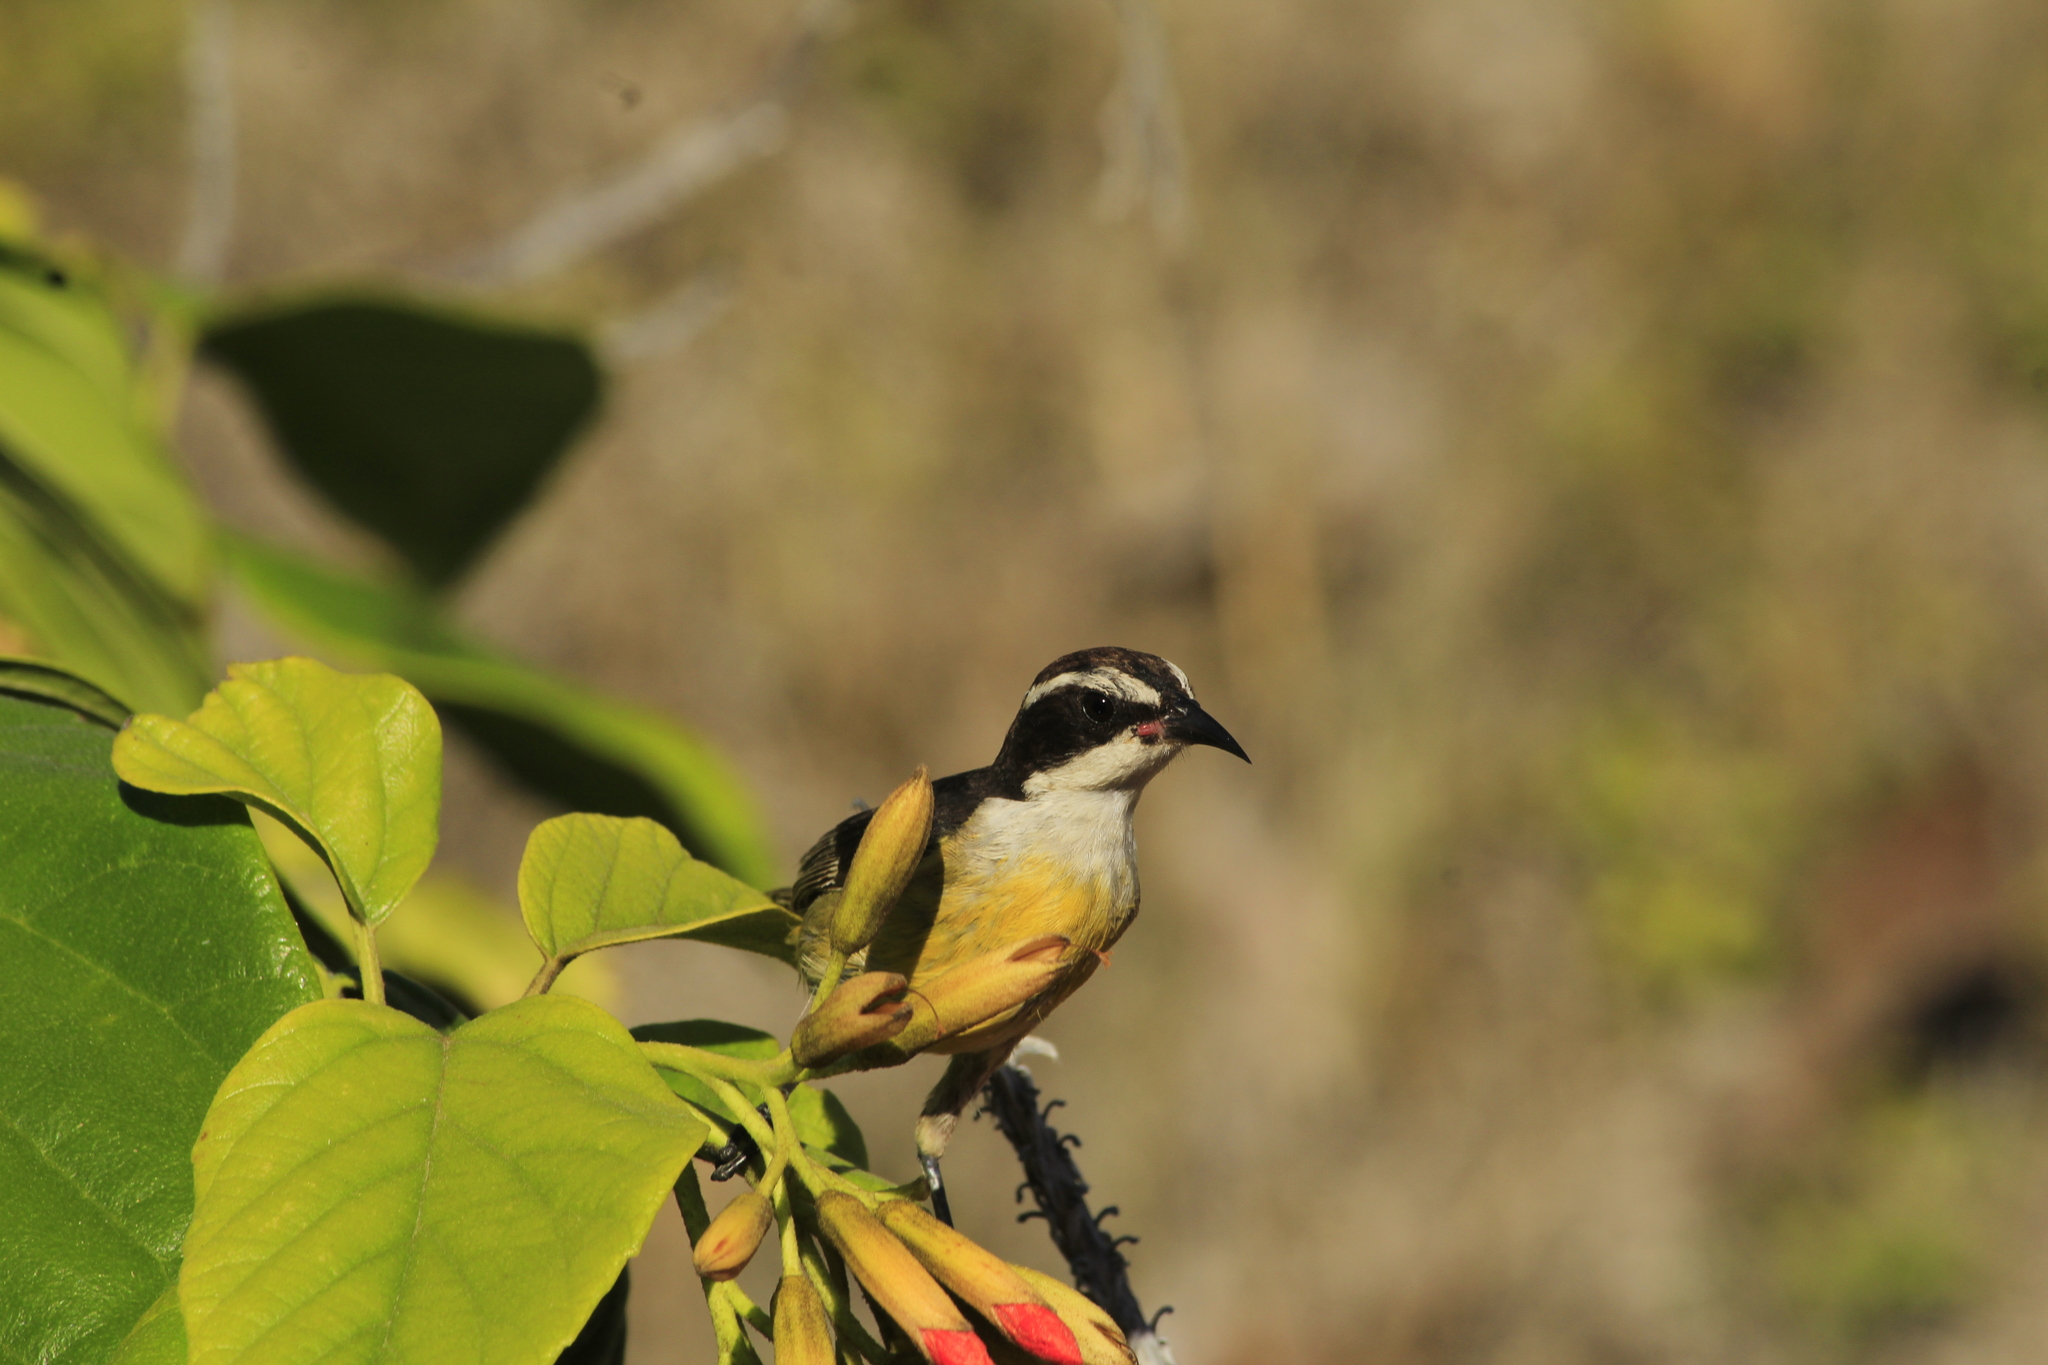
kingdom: Animalia
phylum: Chordata
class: Aves
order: Passeriformes
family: Thraupidae
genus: Coereba
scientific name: Coereba flaveola
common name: Bananaquit
